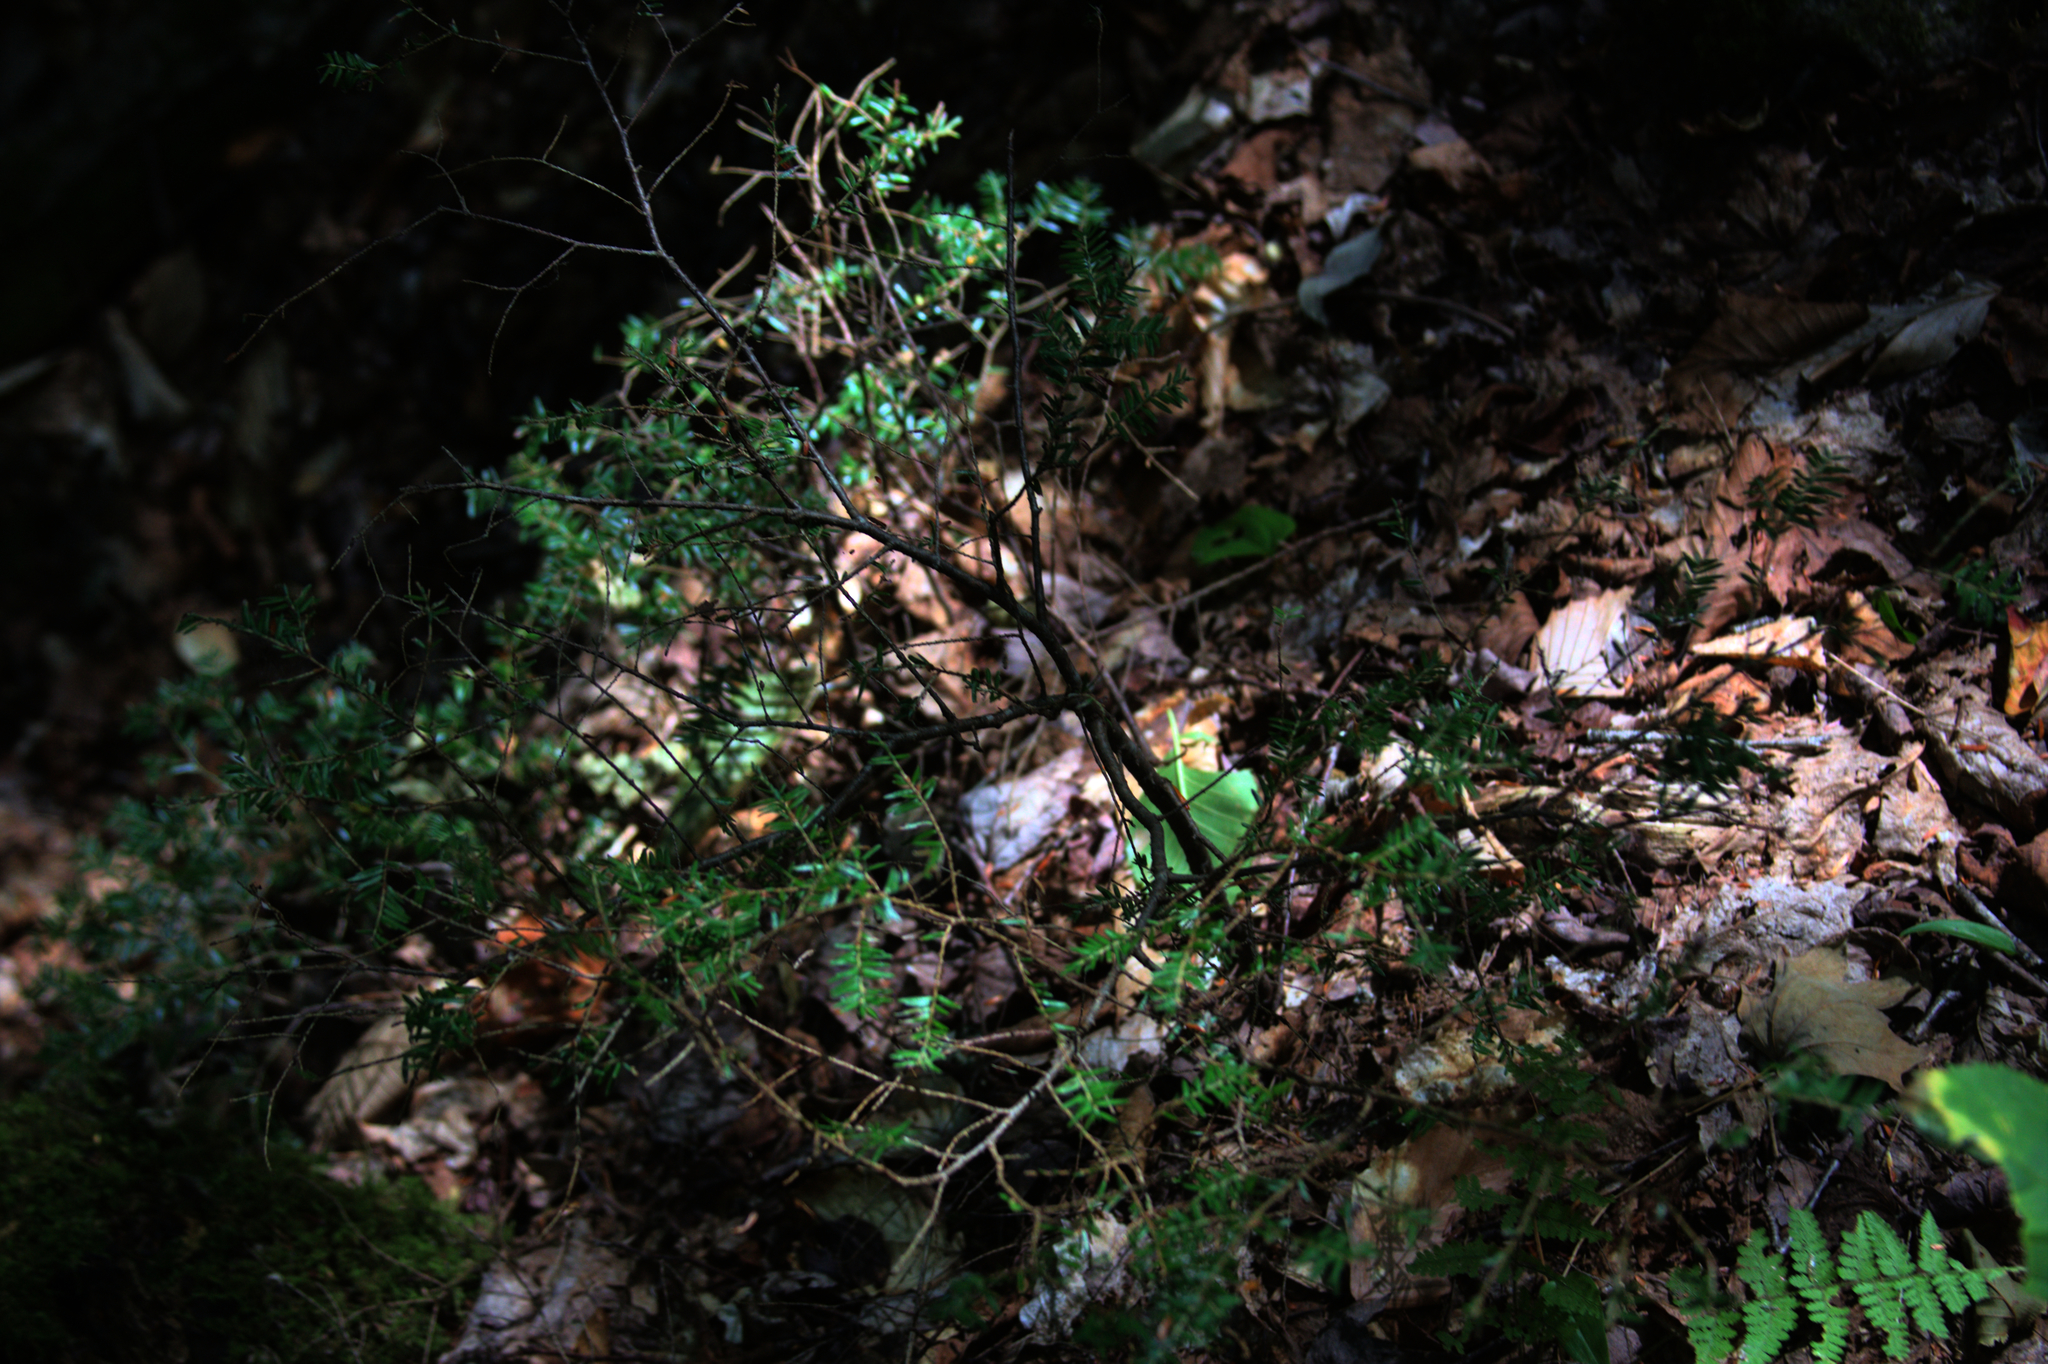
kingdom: Plantae
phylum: Tracheophyta
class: Pinopsida
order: Pinales
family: Pinaceae
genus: Tsuga
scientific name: Tsuga canadensis
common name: Eastern hemlock
